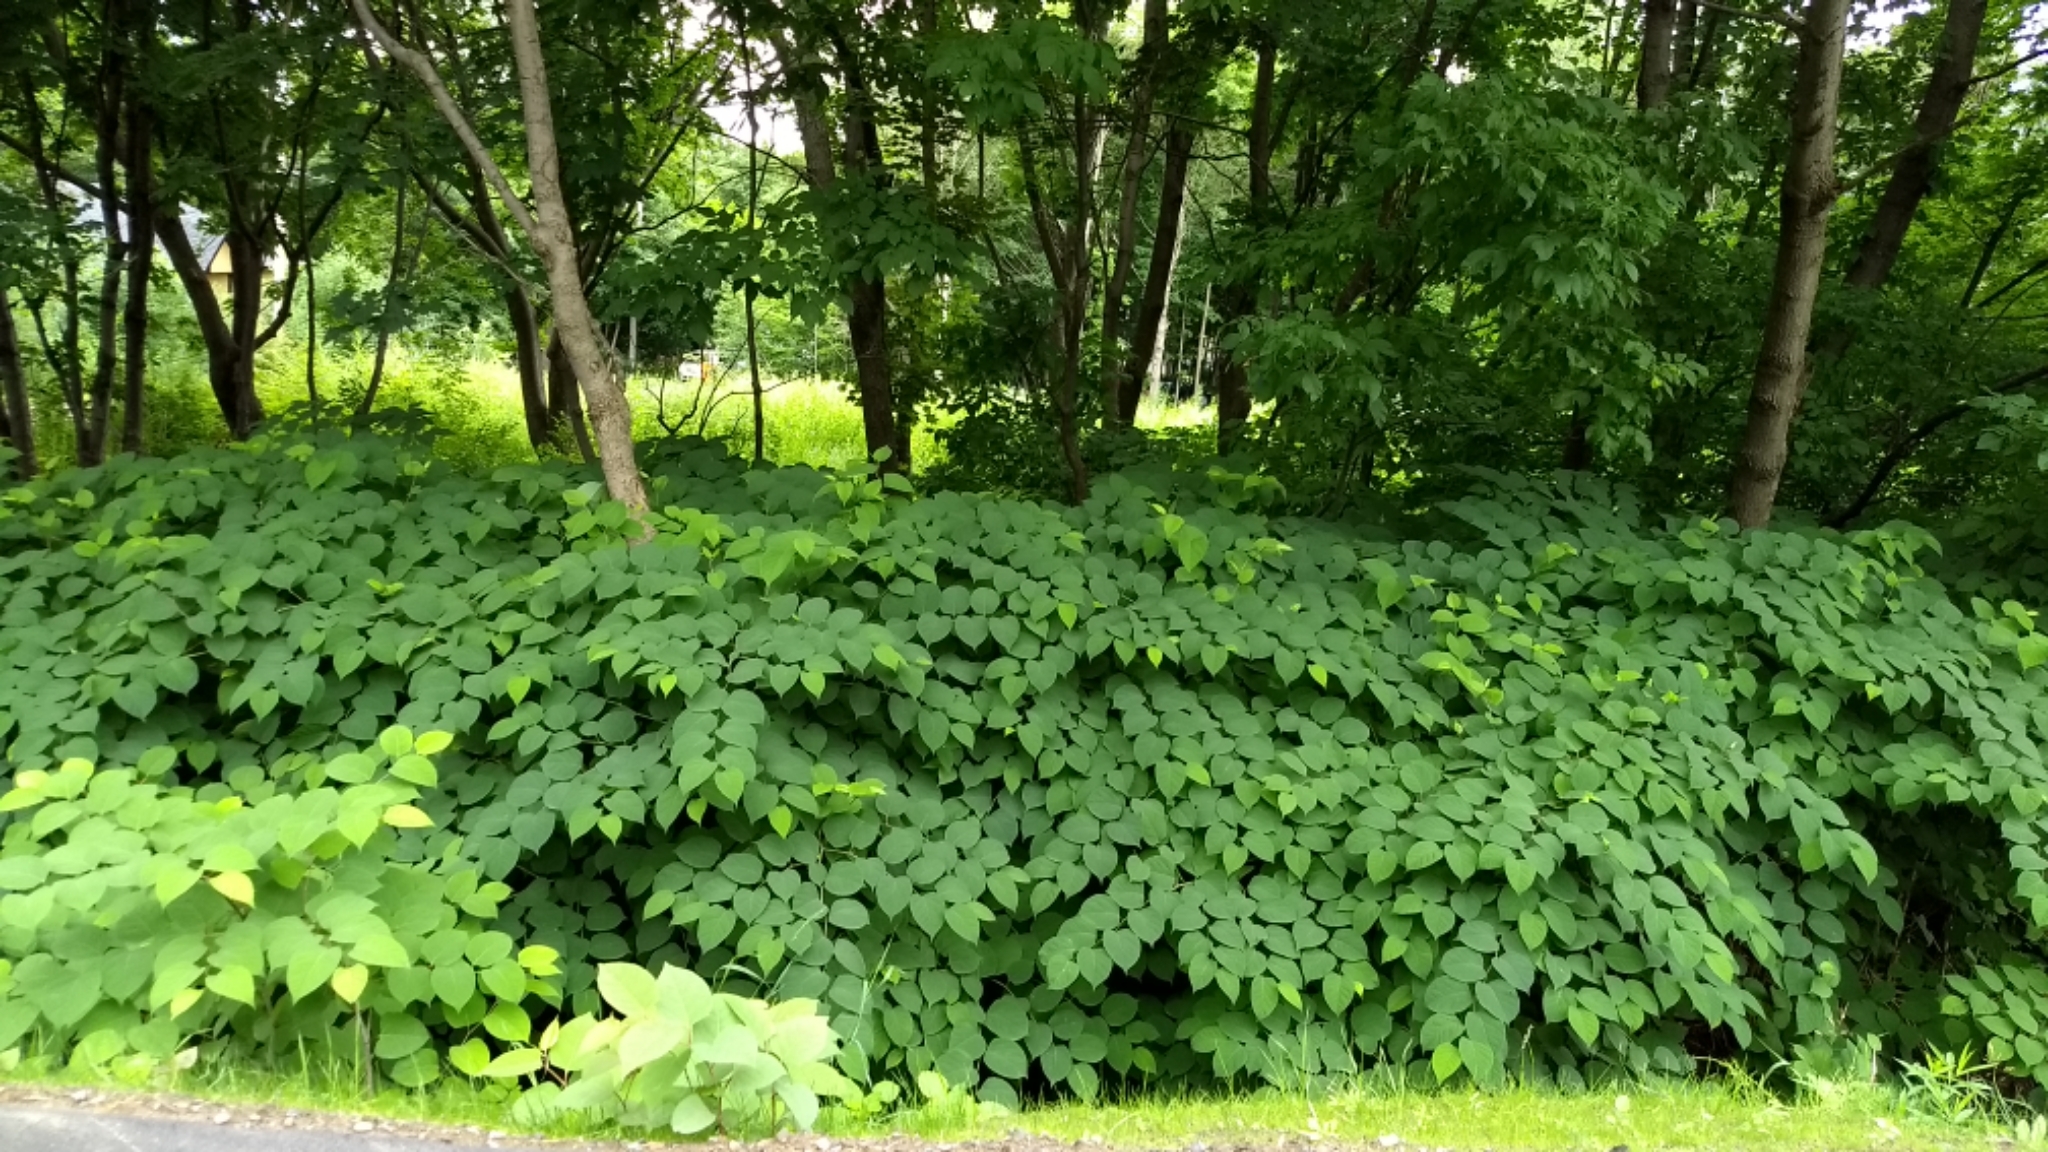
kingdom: Plantae
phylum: Tracheophyta
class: Magnoliopsida
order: Caryophyllales
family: Polygonaceae
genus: Reynoutria
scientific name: Reynoutria japonica
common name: Japanese knotweed
